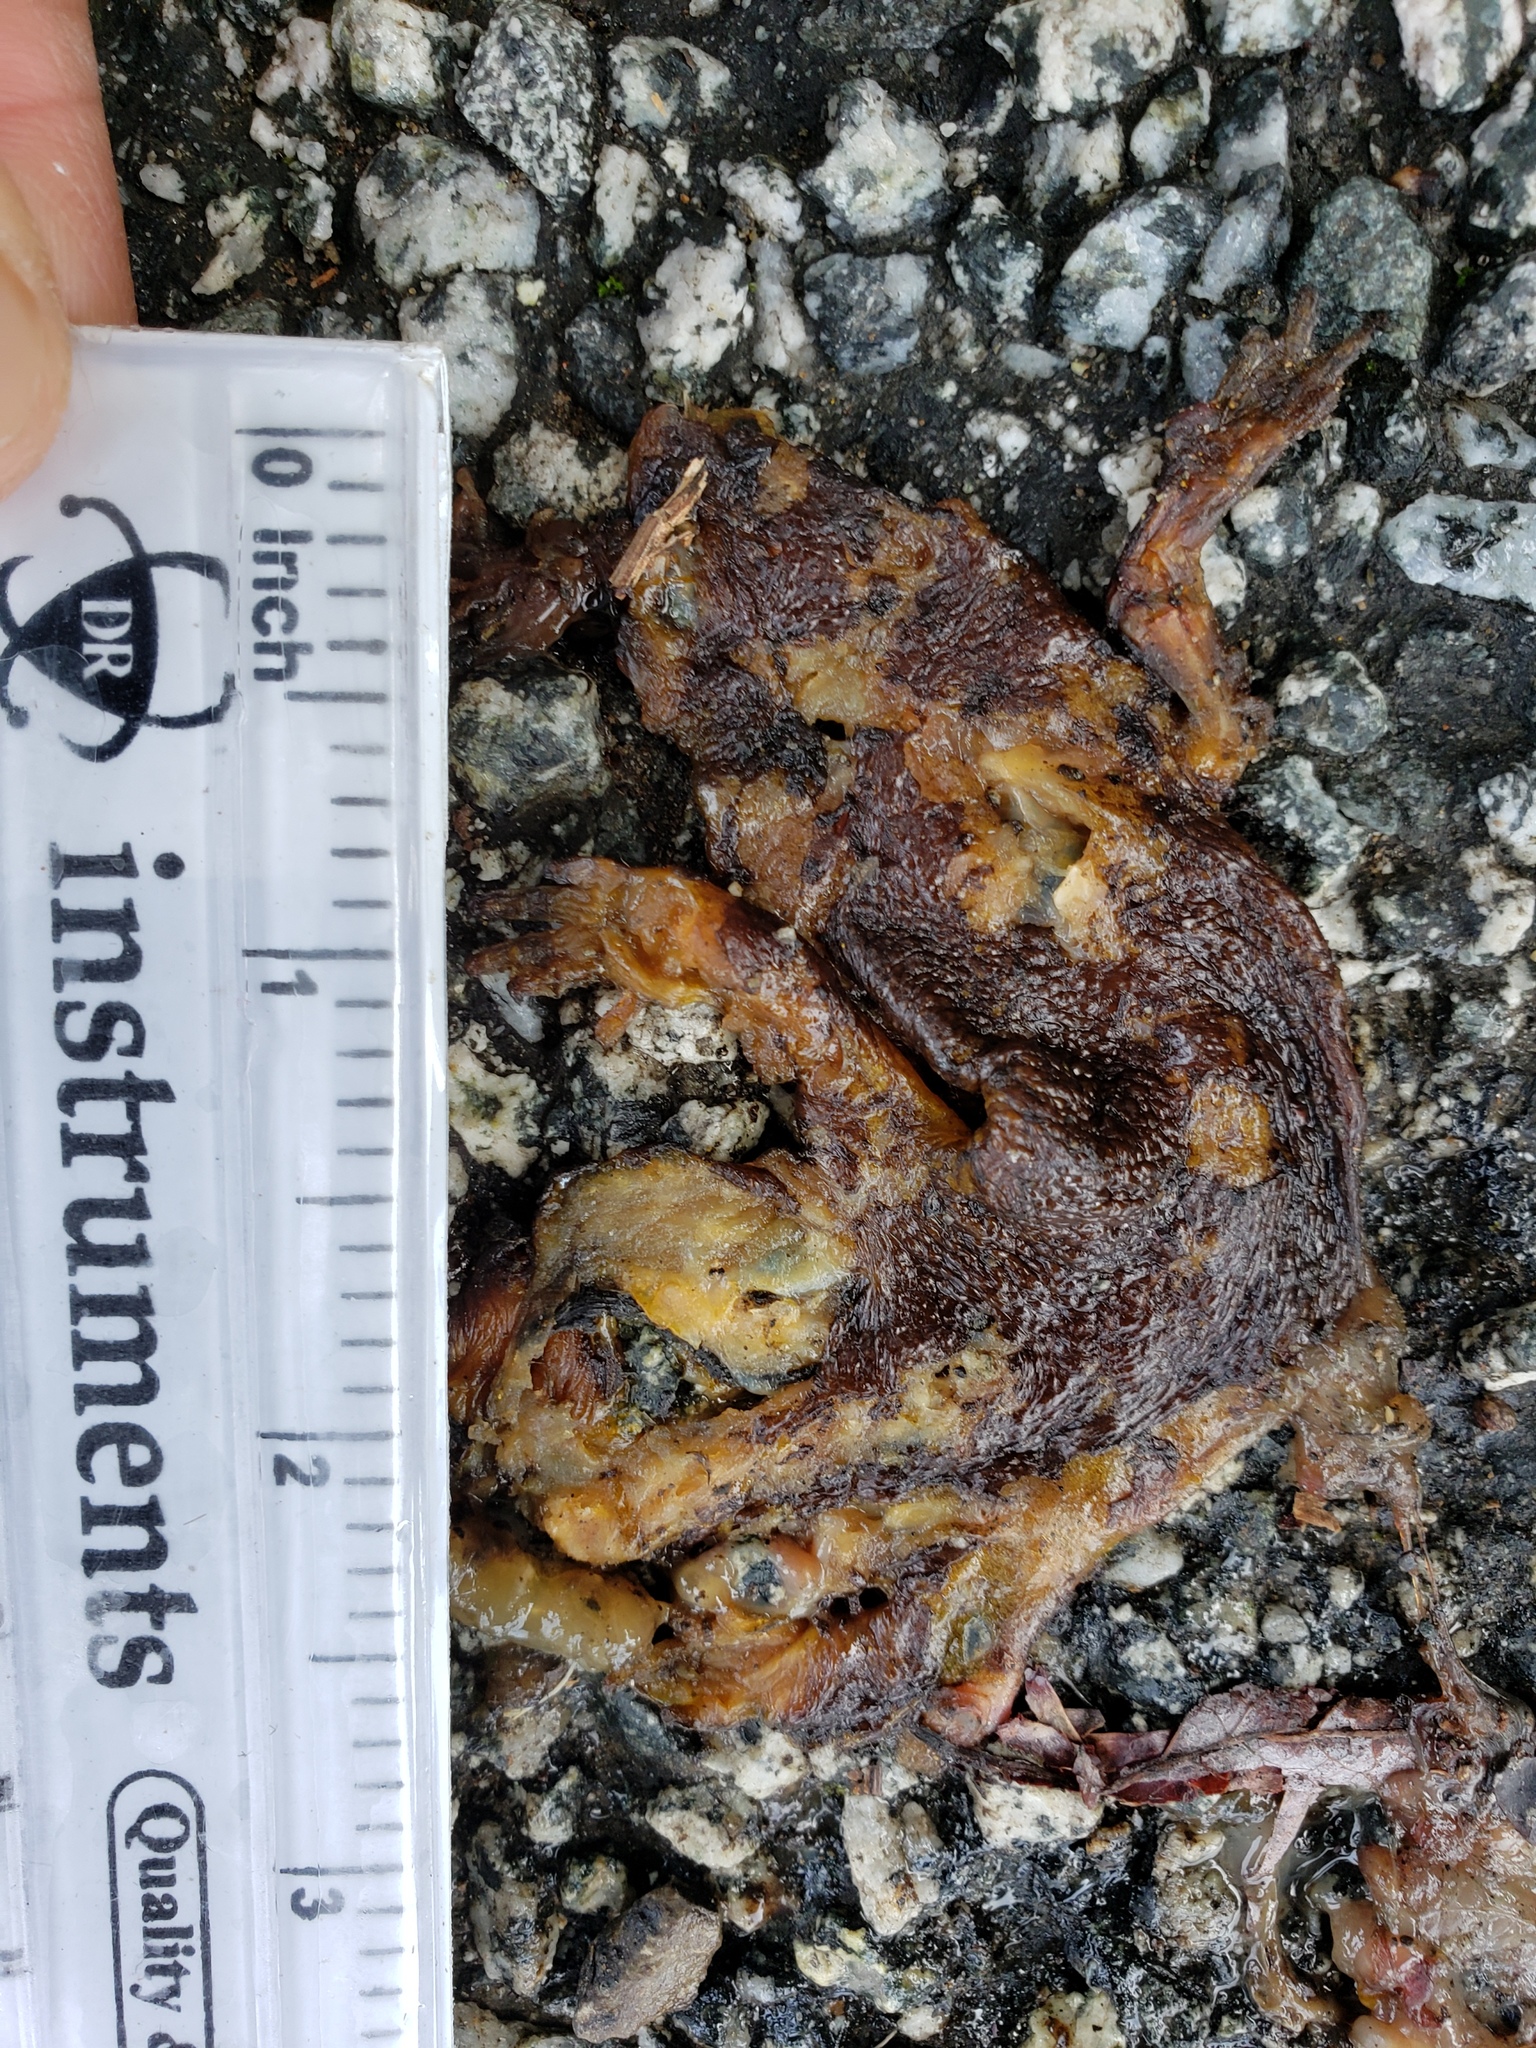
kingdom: Animalia
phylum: Chordata
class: Amphibia
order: Caudata
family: Salamandridae
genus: Taricha
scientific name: Taricha
